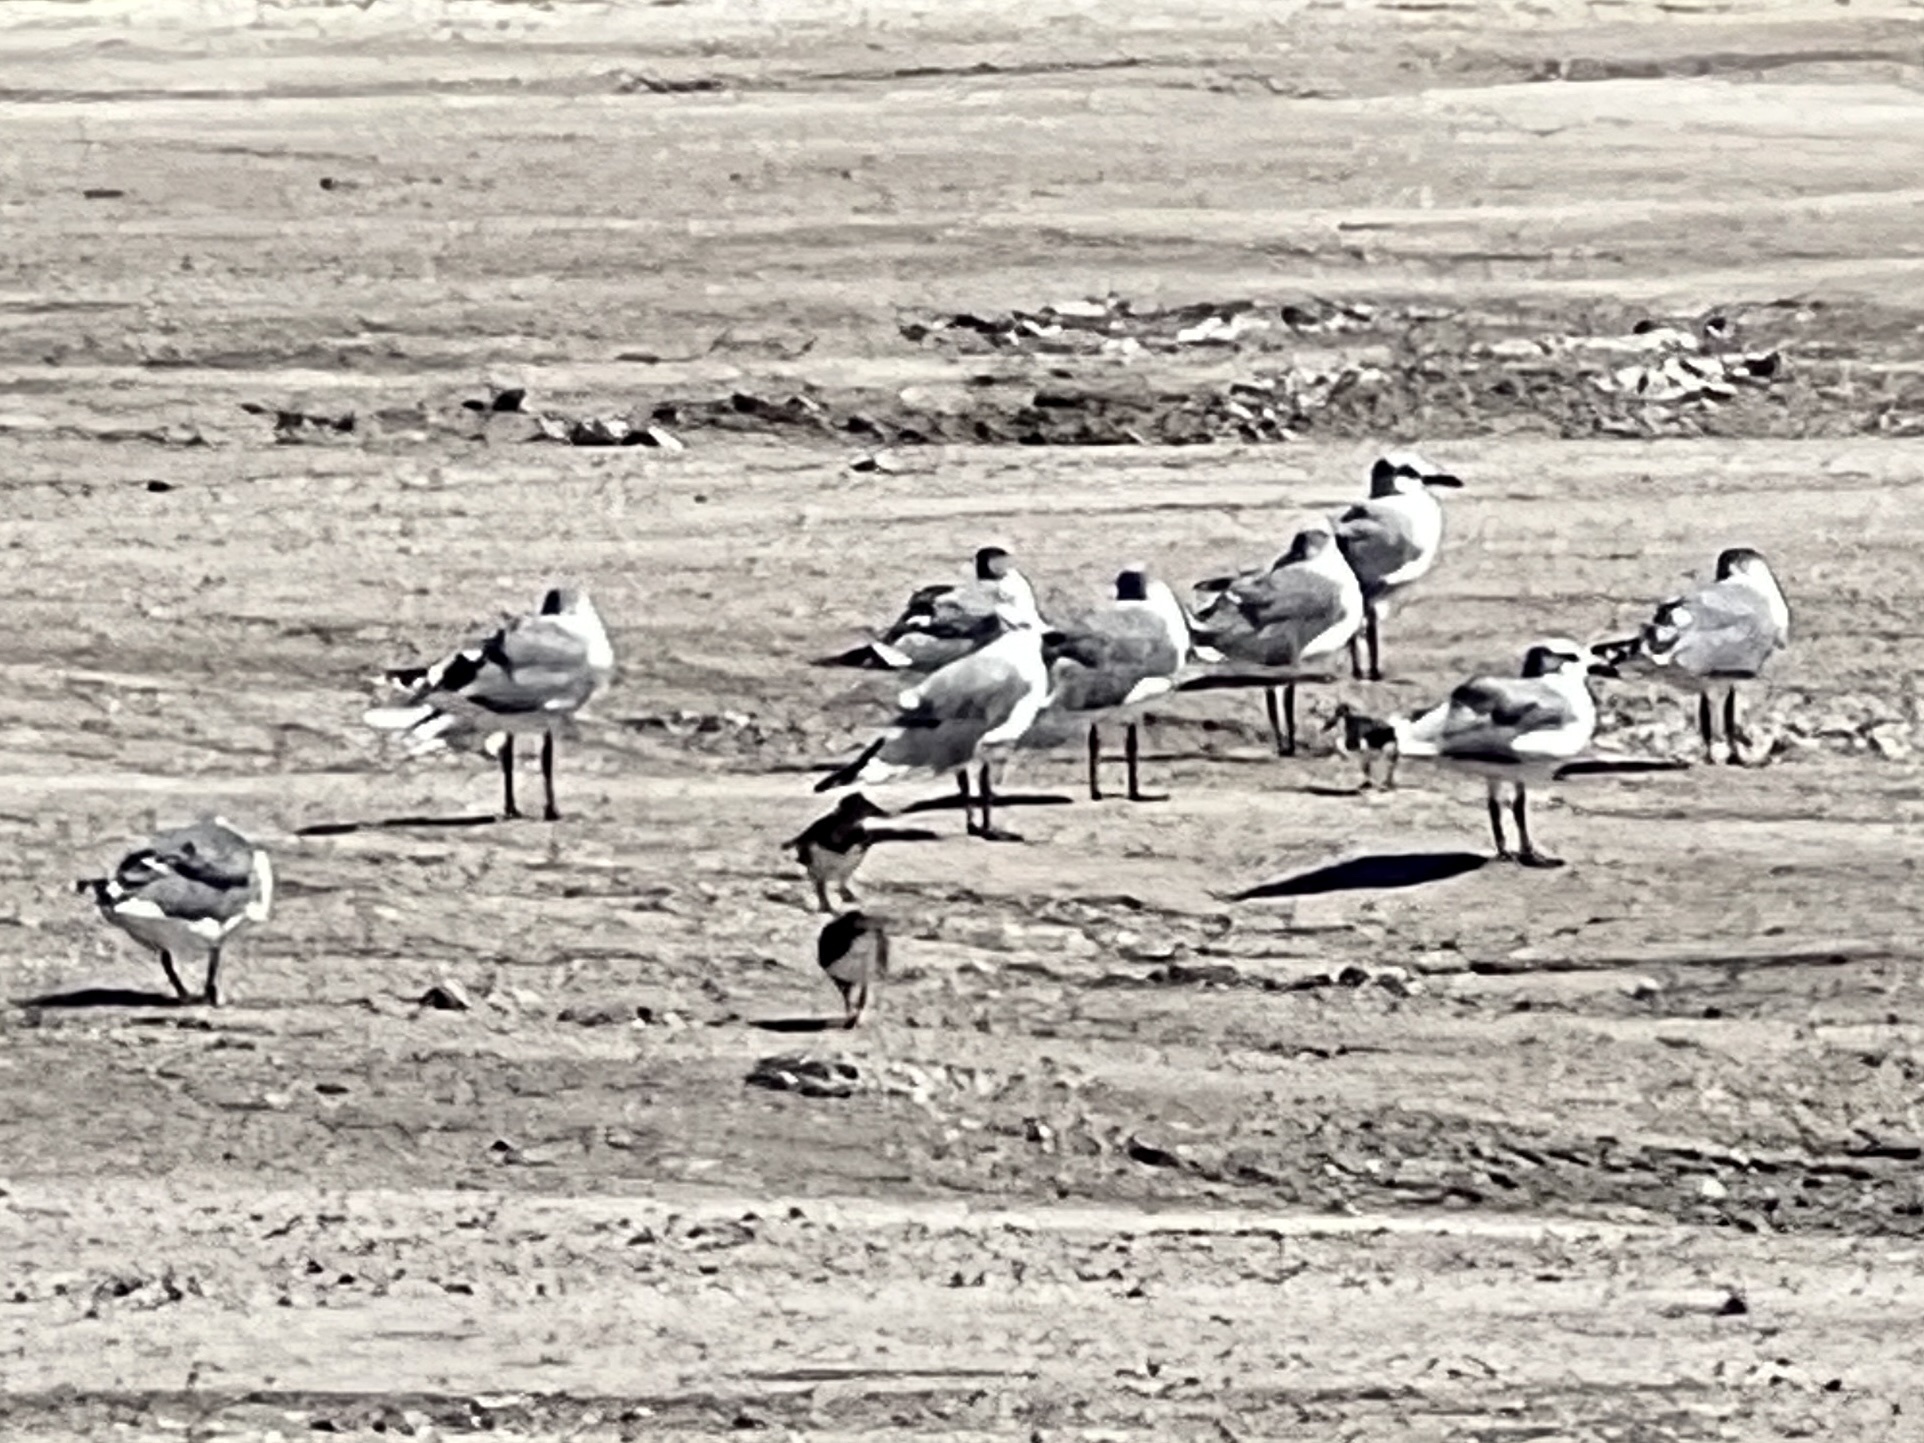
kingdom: Animalia
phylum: Chordata
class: Aves
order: Charadriiformes
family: Laridae
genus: Leucophaeus
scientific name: Leucophaeus atricilla
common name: Laughing gull
